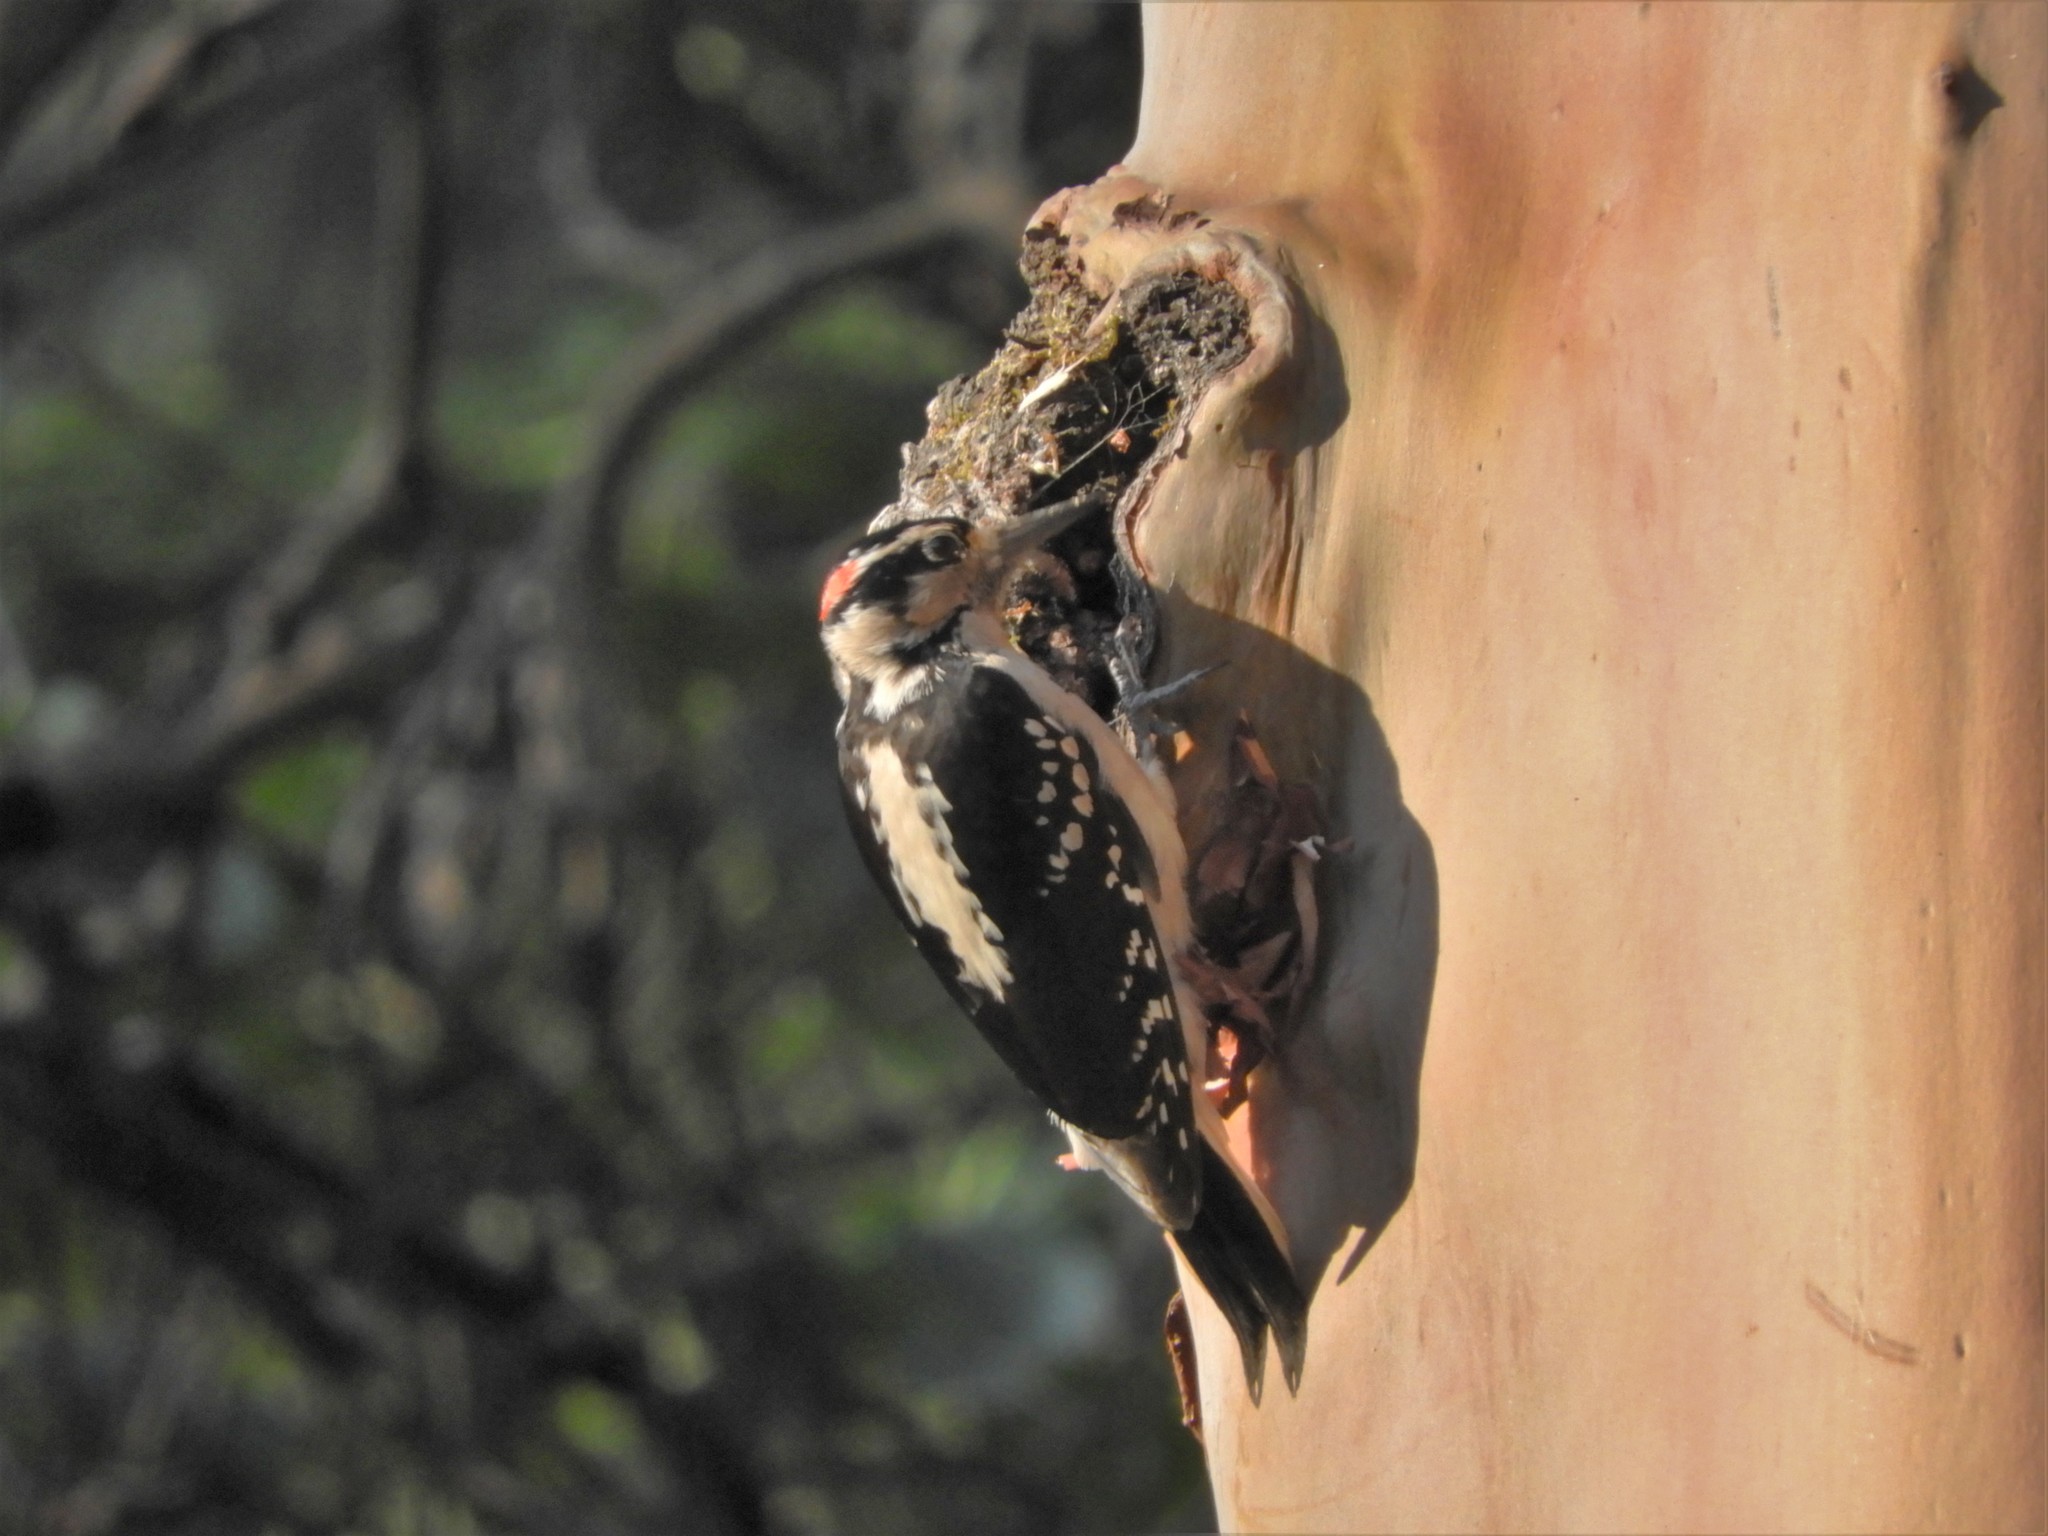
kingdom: Animalia
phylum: Chordata
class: Aves
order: Piciformes
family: Picidae
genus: Leuconotopicus
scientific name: Leuconotopicus villosus
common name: Hairy woodpecker
